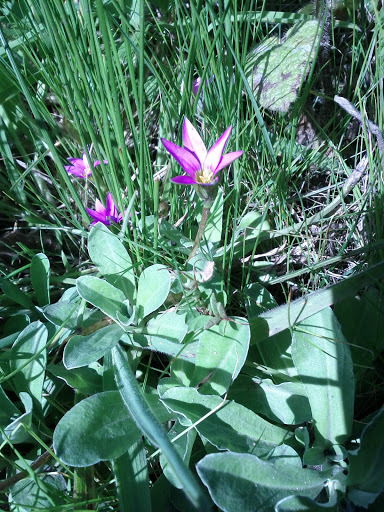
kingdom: Plantae
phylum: Tracheophyta
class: Liliopsida
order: Asparagales
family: Iridaceae
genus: Romulea
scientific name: Romulea rosea
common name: Oniongrass
